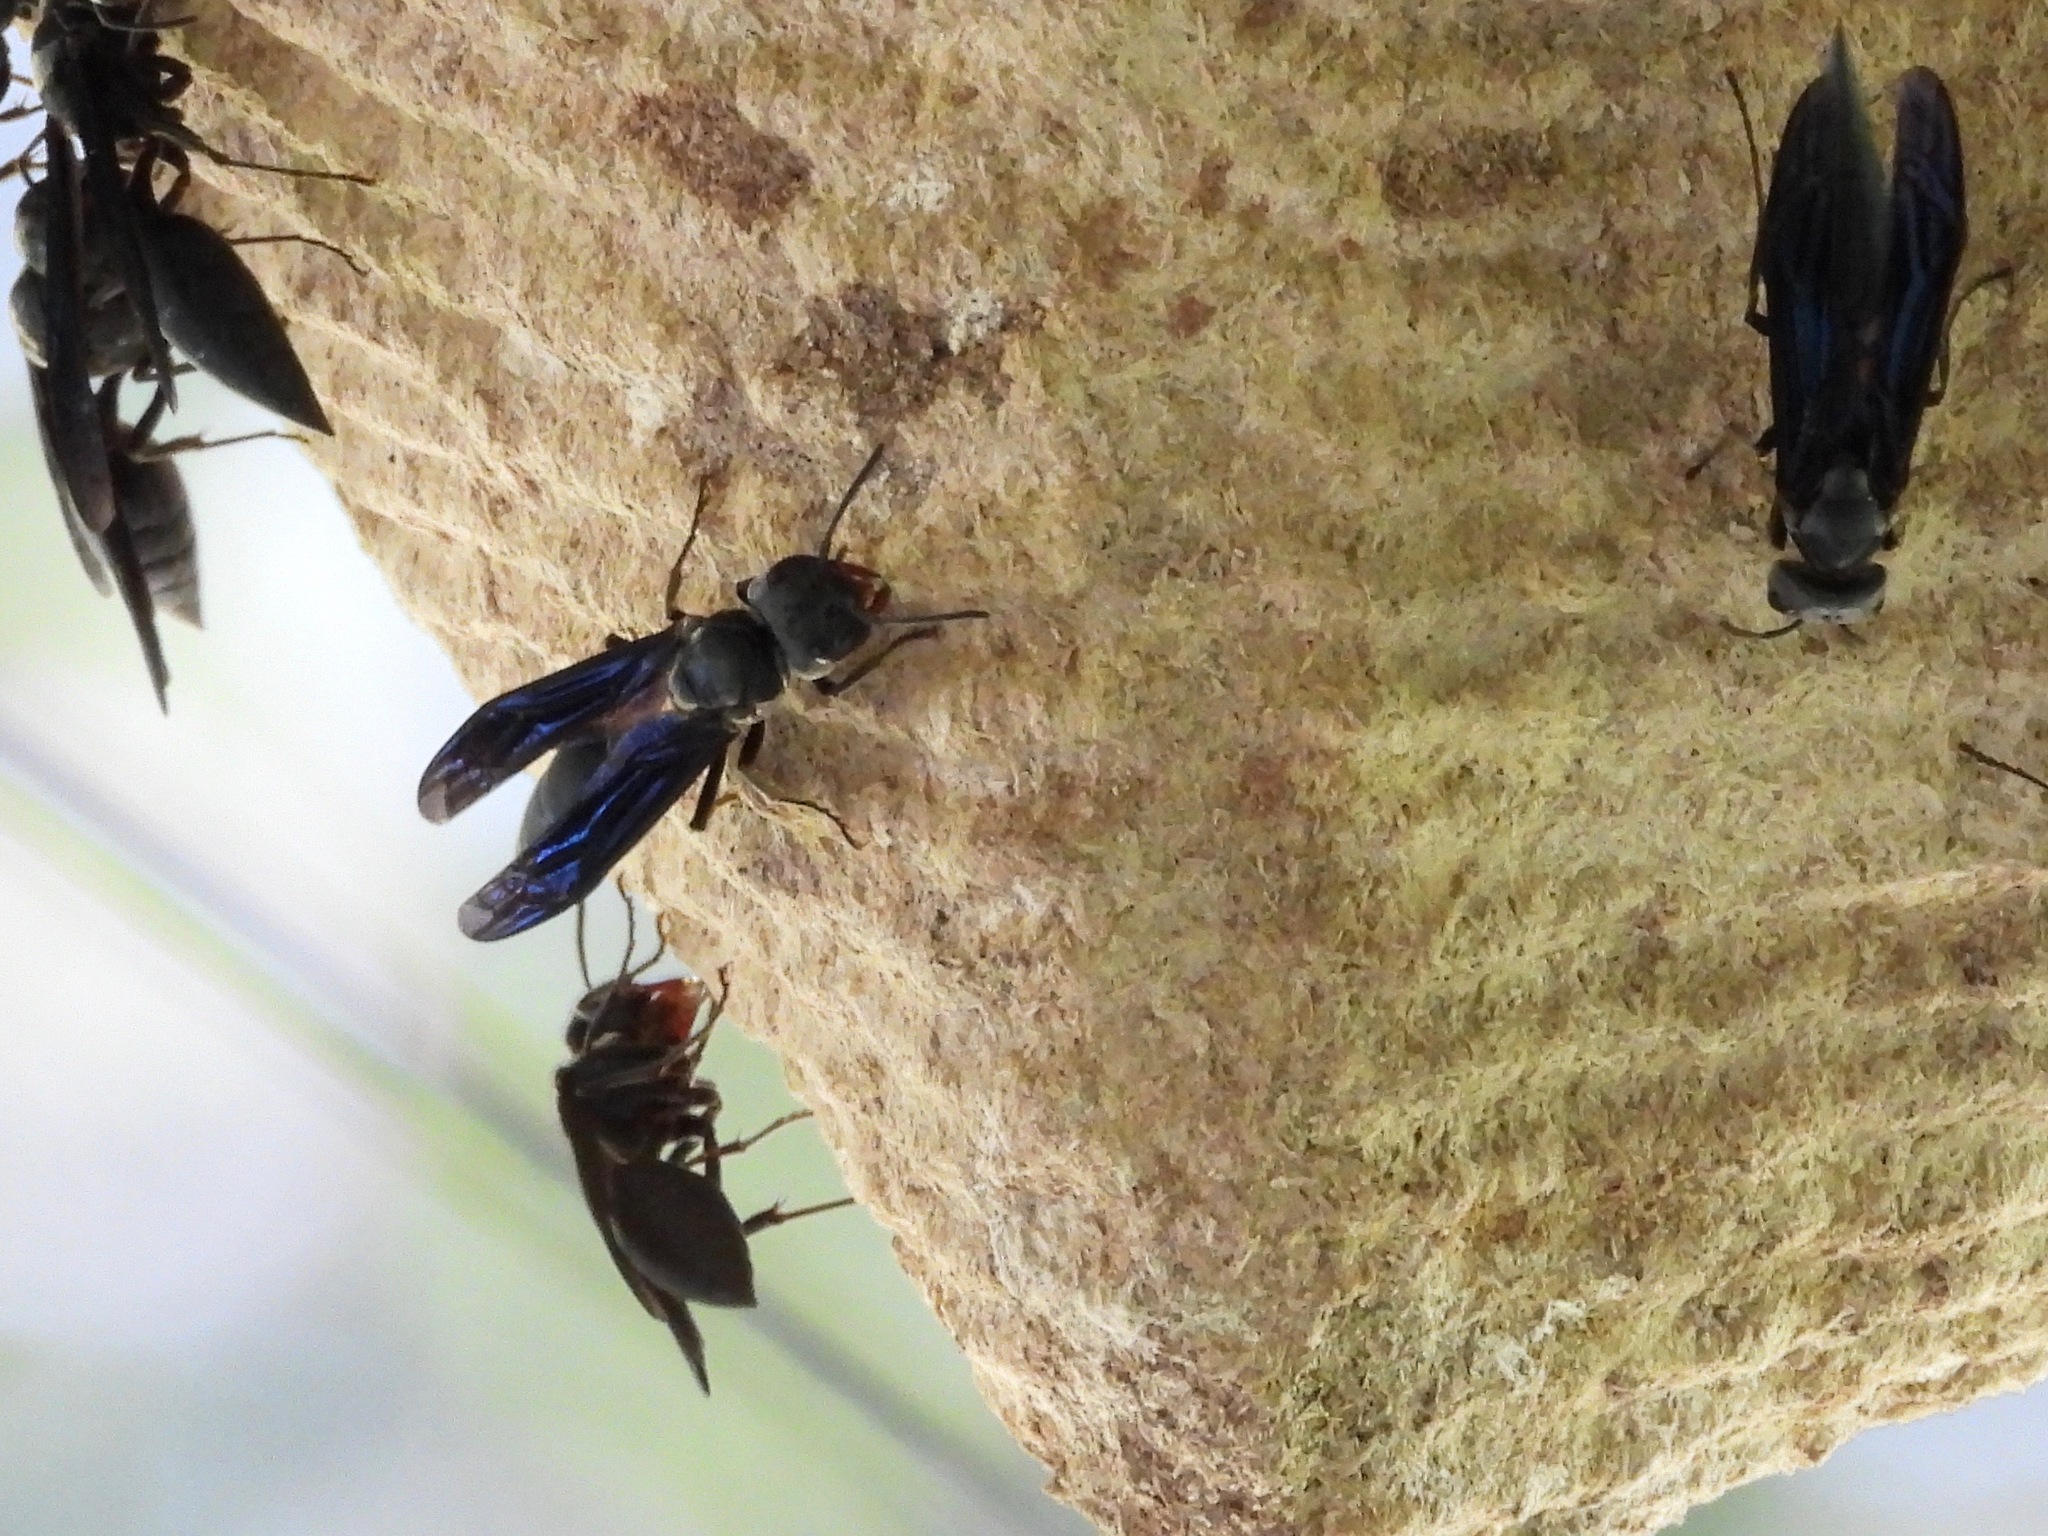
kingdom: Animalia
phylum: Arthropoda
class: Insecta
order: Hymenoptera
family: Vespidae
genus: Synoeca
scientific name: Synoeca septentrionalis
